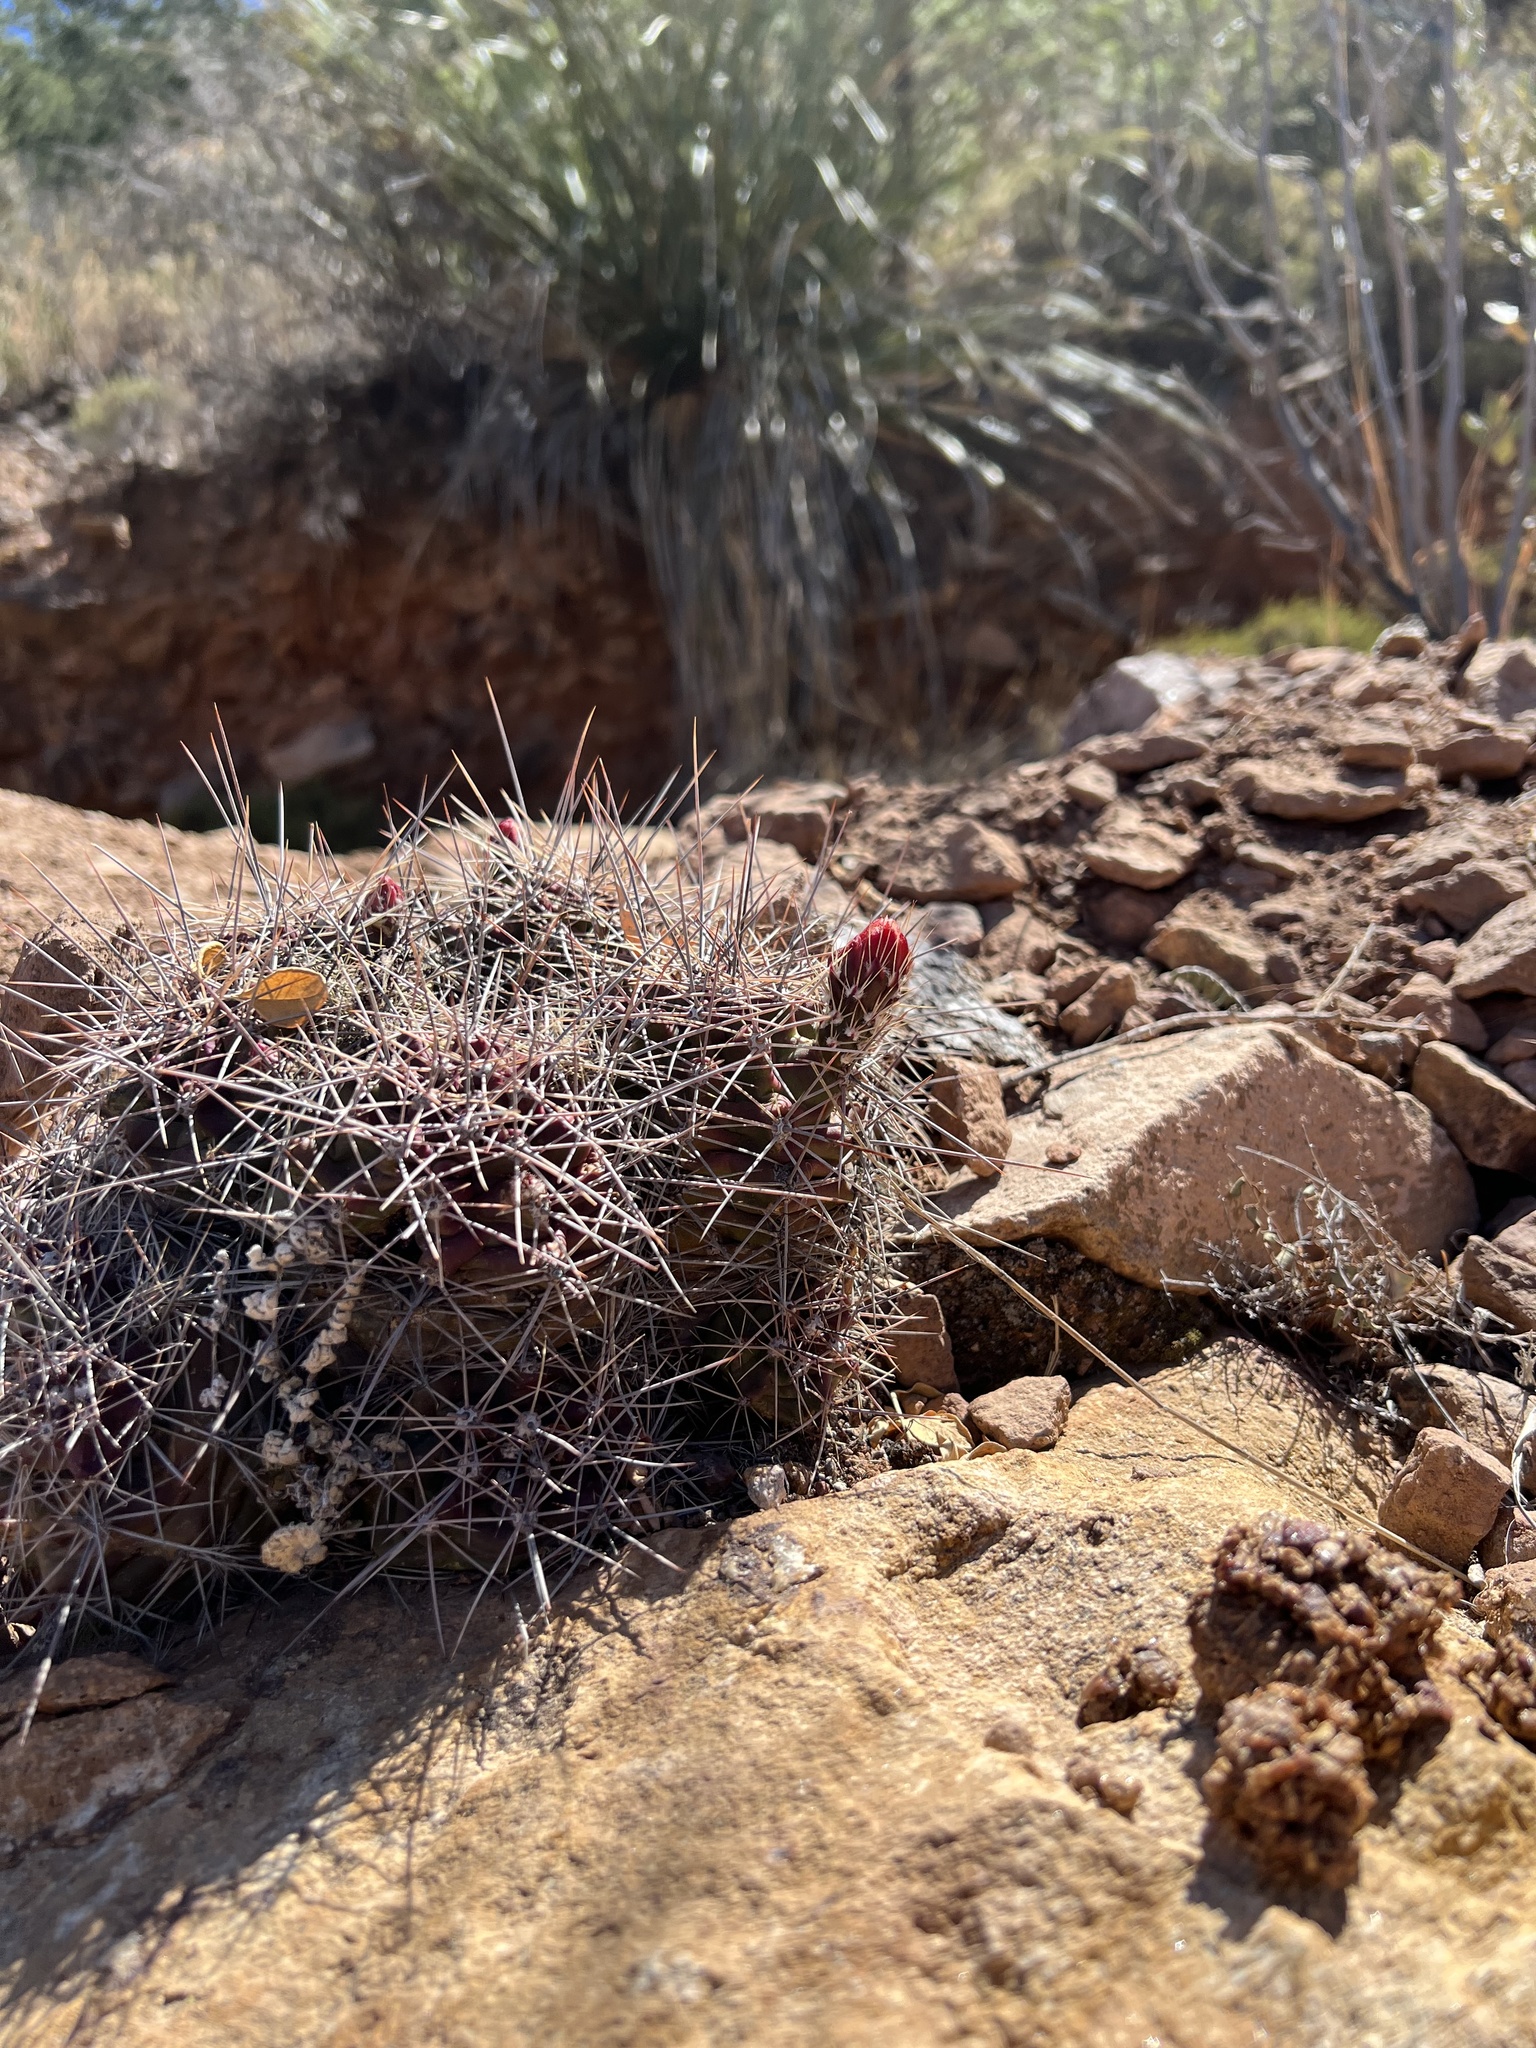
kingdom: Plantae
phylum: Tracheophyta
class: Magnoliopsida
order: Caryophyllales
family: Cactaceae
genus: Echinocereus
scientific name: Echinocereus coccineus
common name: Scarlet hedgehog cactus
